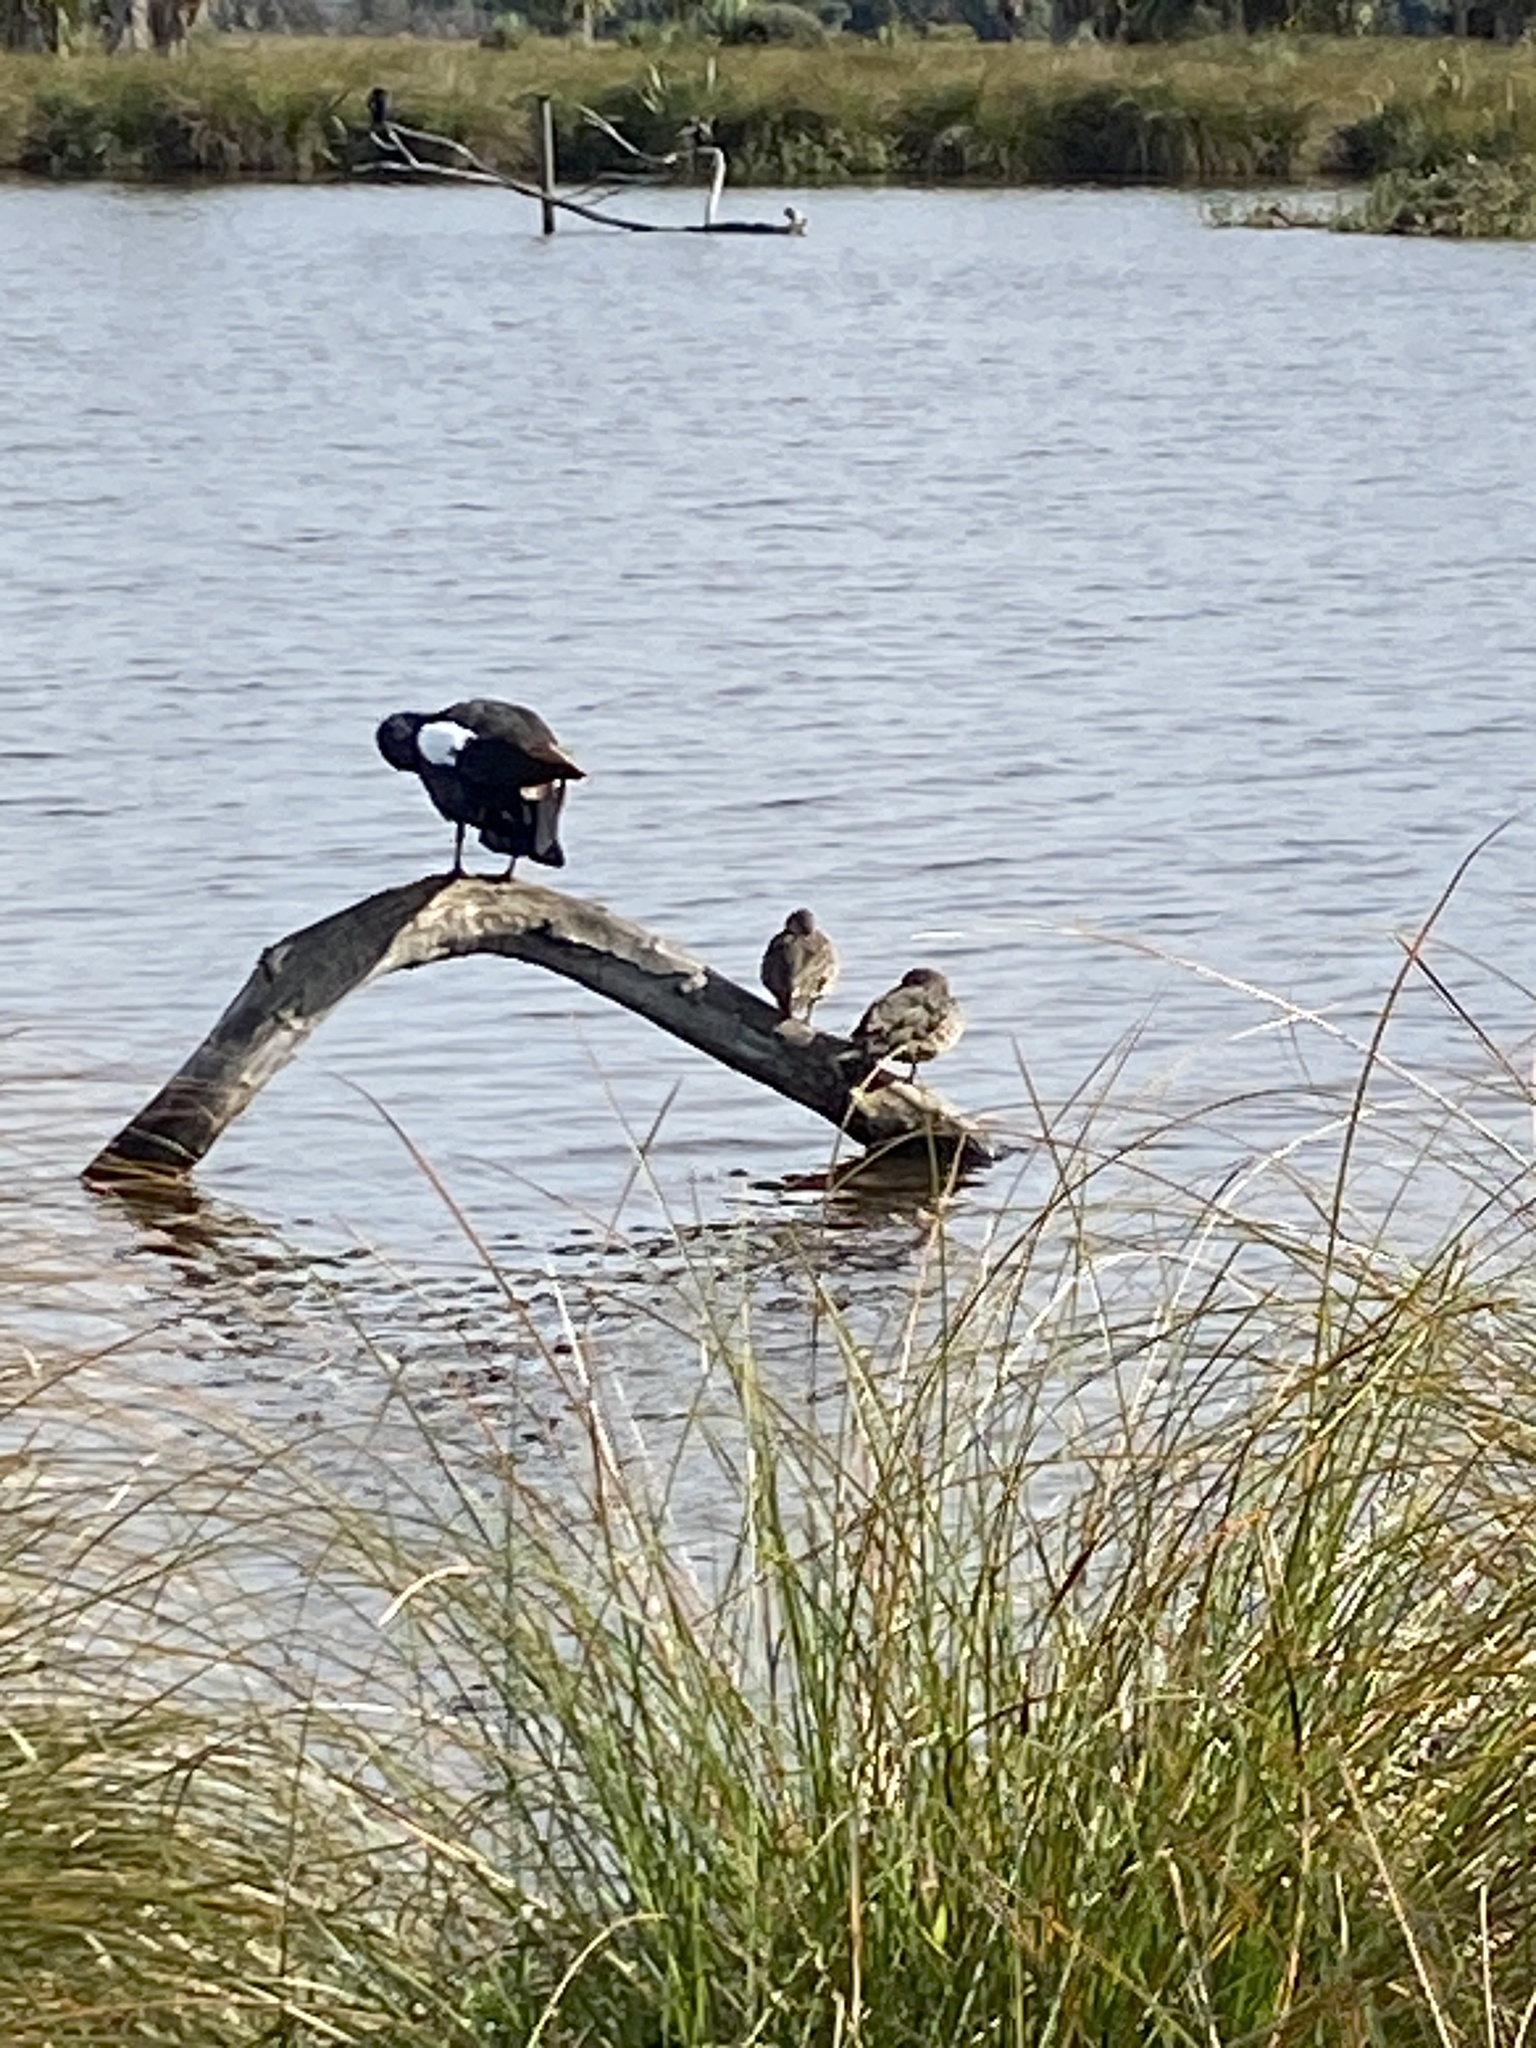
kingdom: Animalia
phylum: Chordata
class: Aves
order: Anseriformes
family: Anatidae
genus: Tadorna
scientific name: Tadorna variegata
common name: Paradise shelduck
